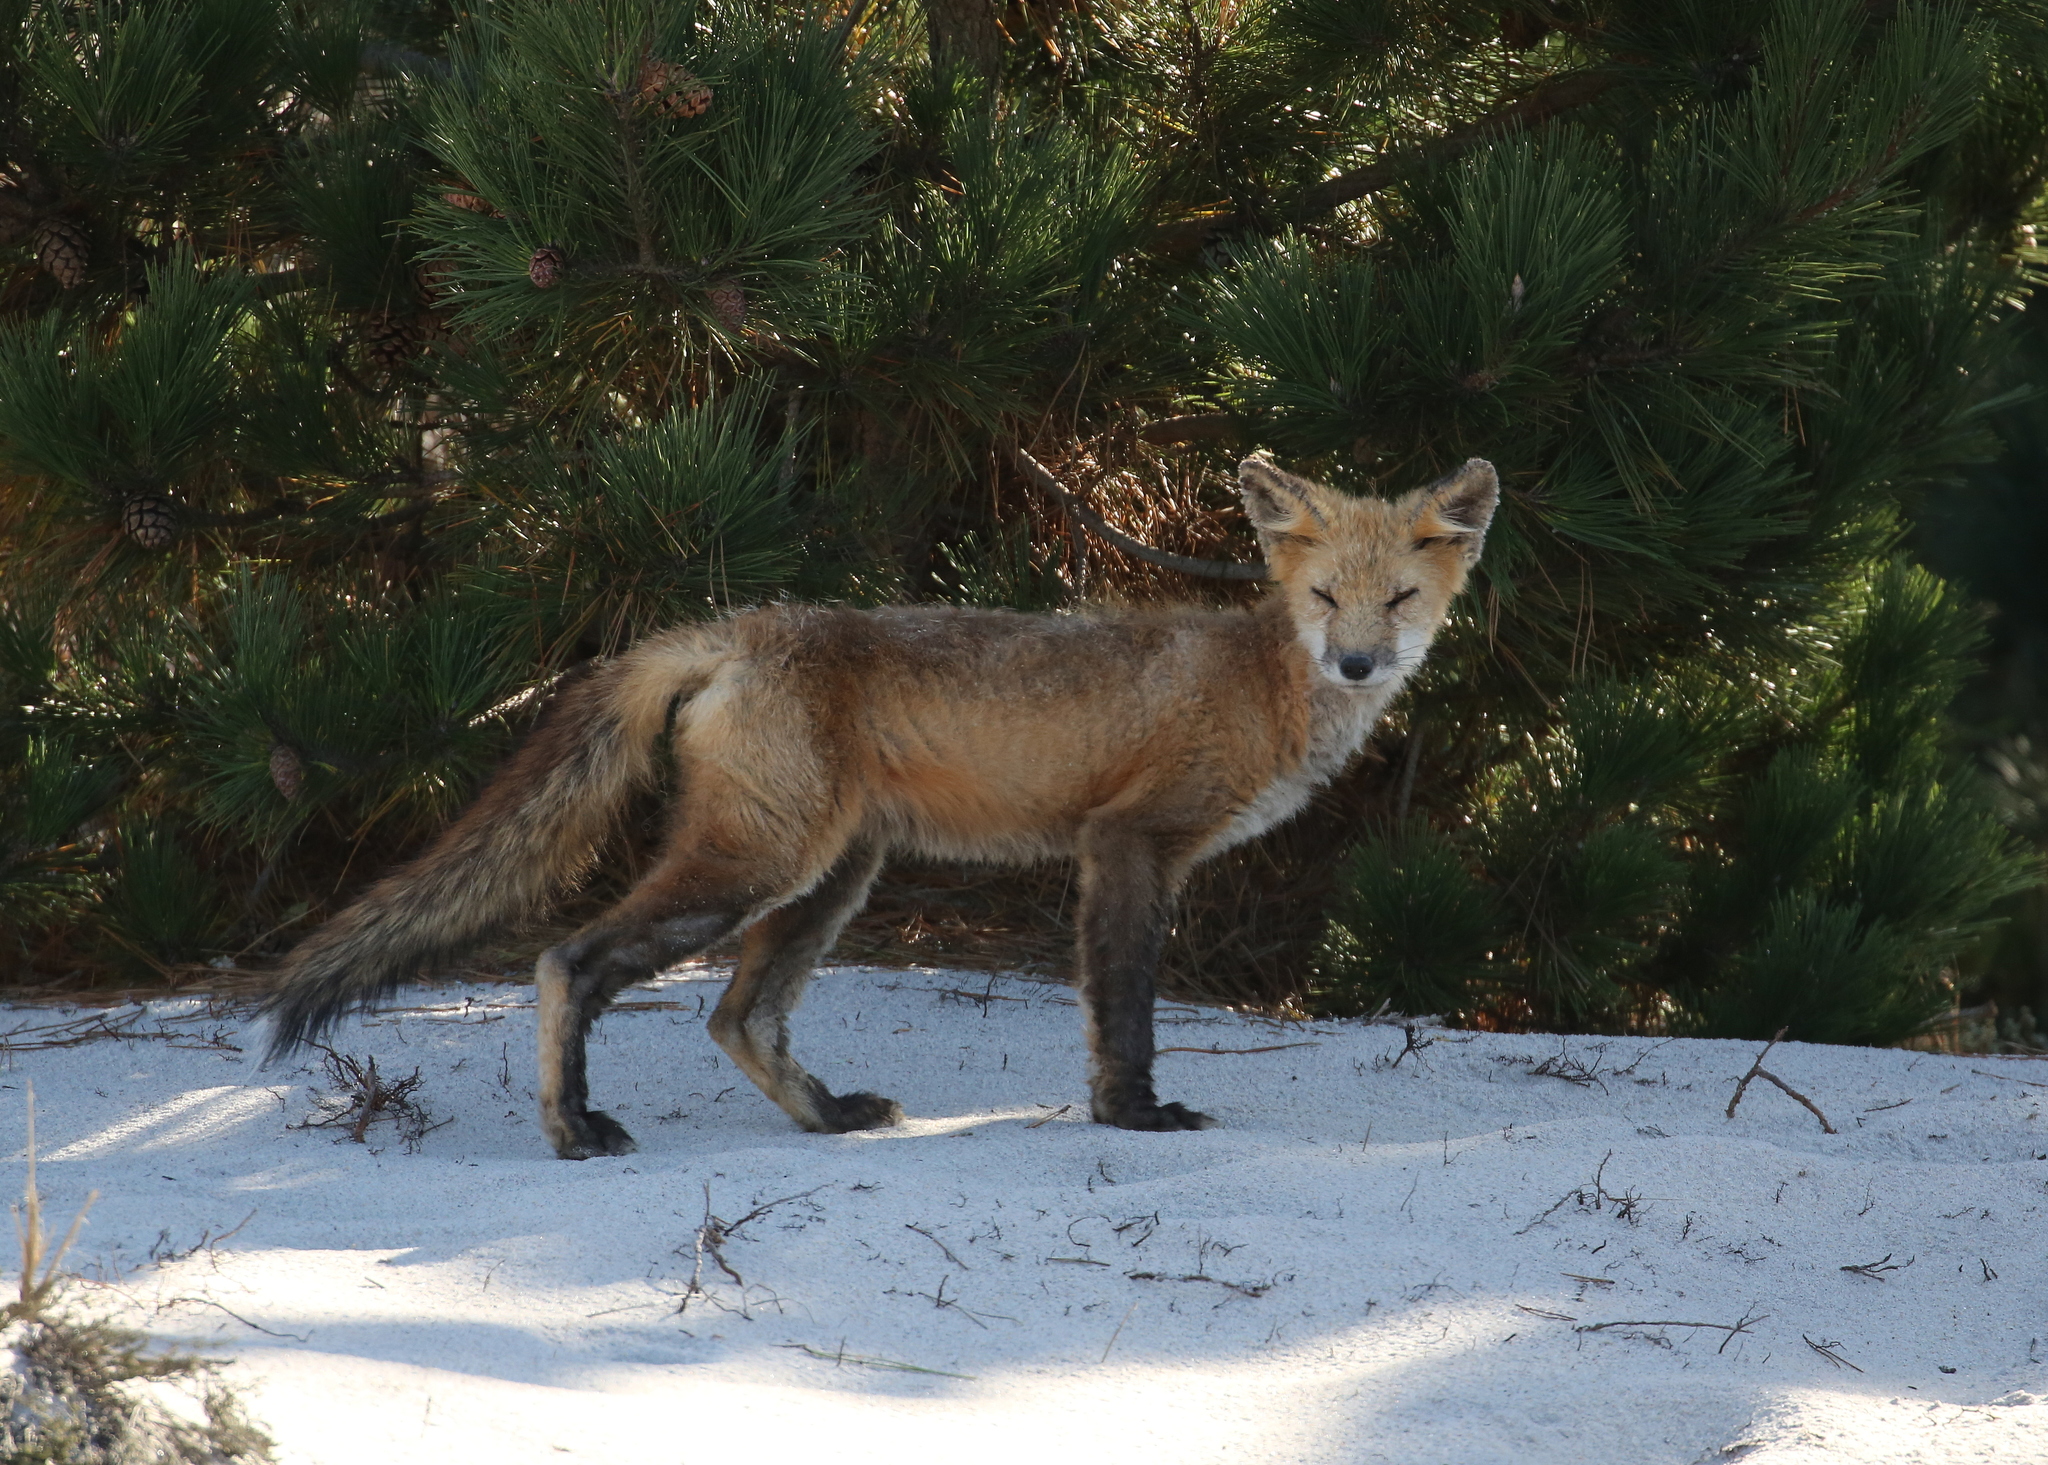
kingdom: Animalia
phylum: Chordata
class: Mammalia
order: Carnivora
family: Canidae
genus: Vulpes
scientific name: Vulpes vulpes
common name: Red fox
